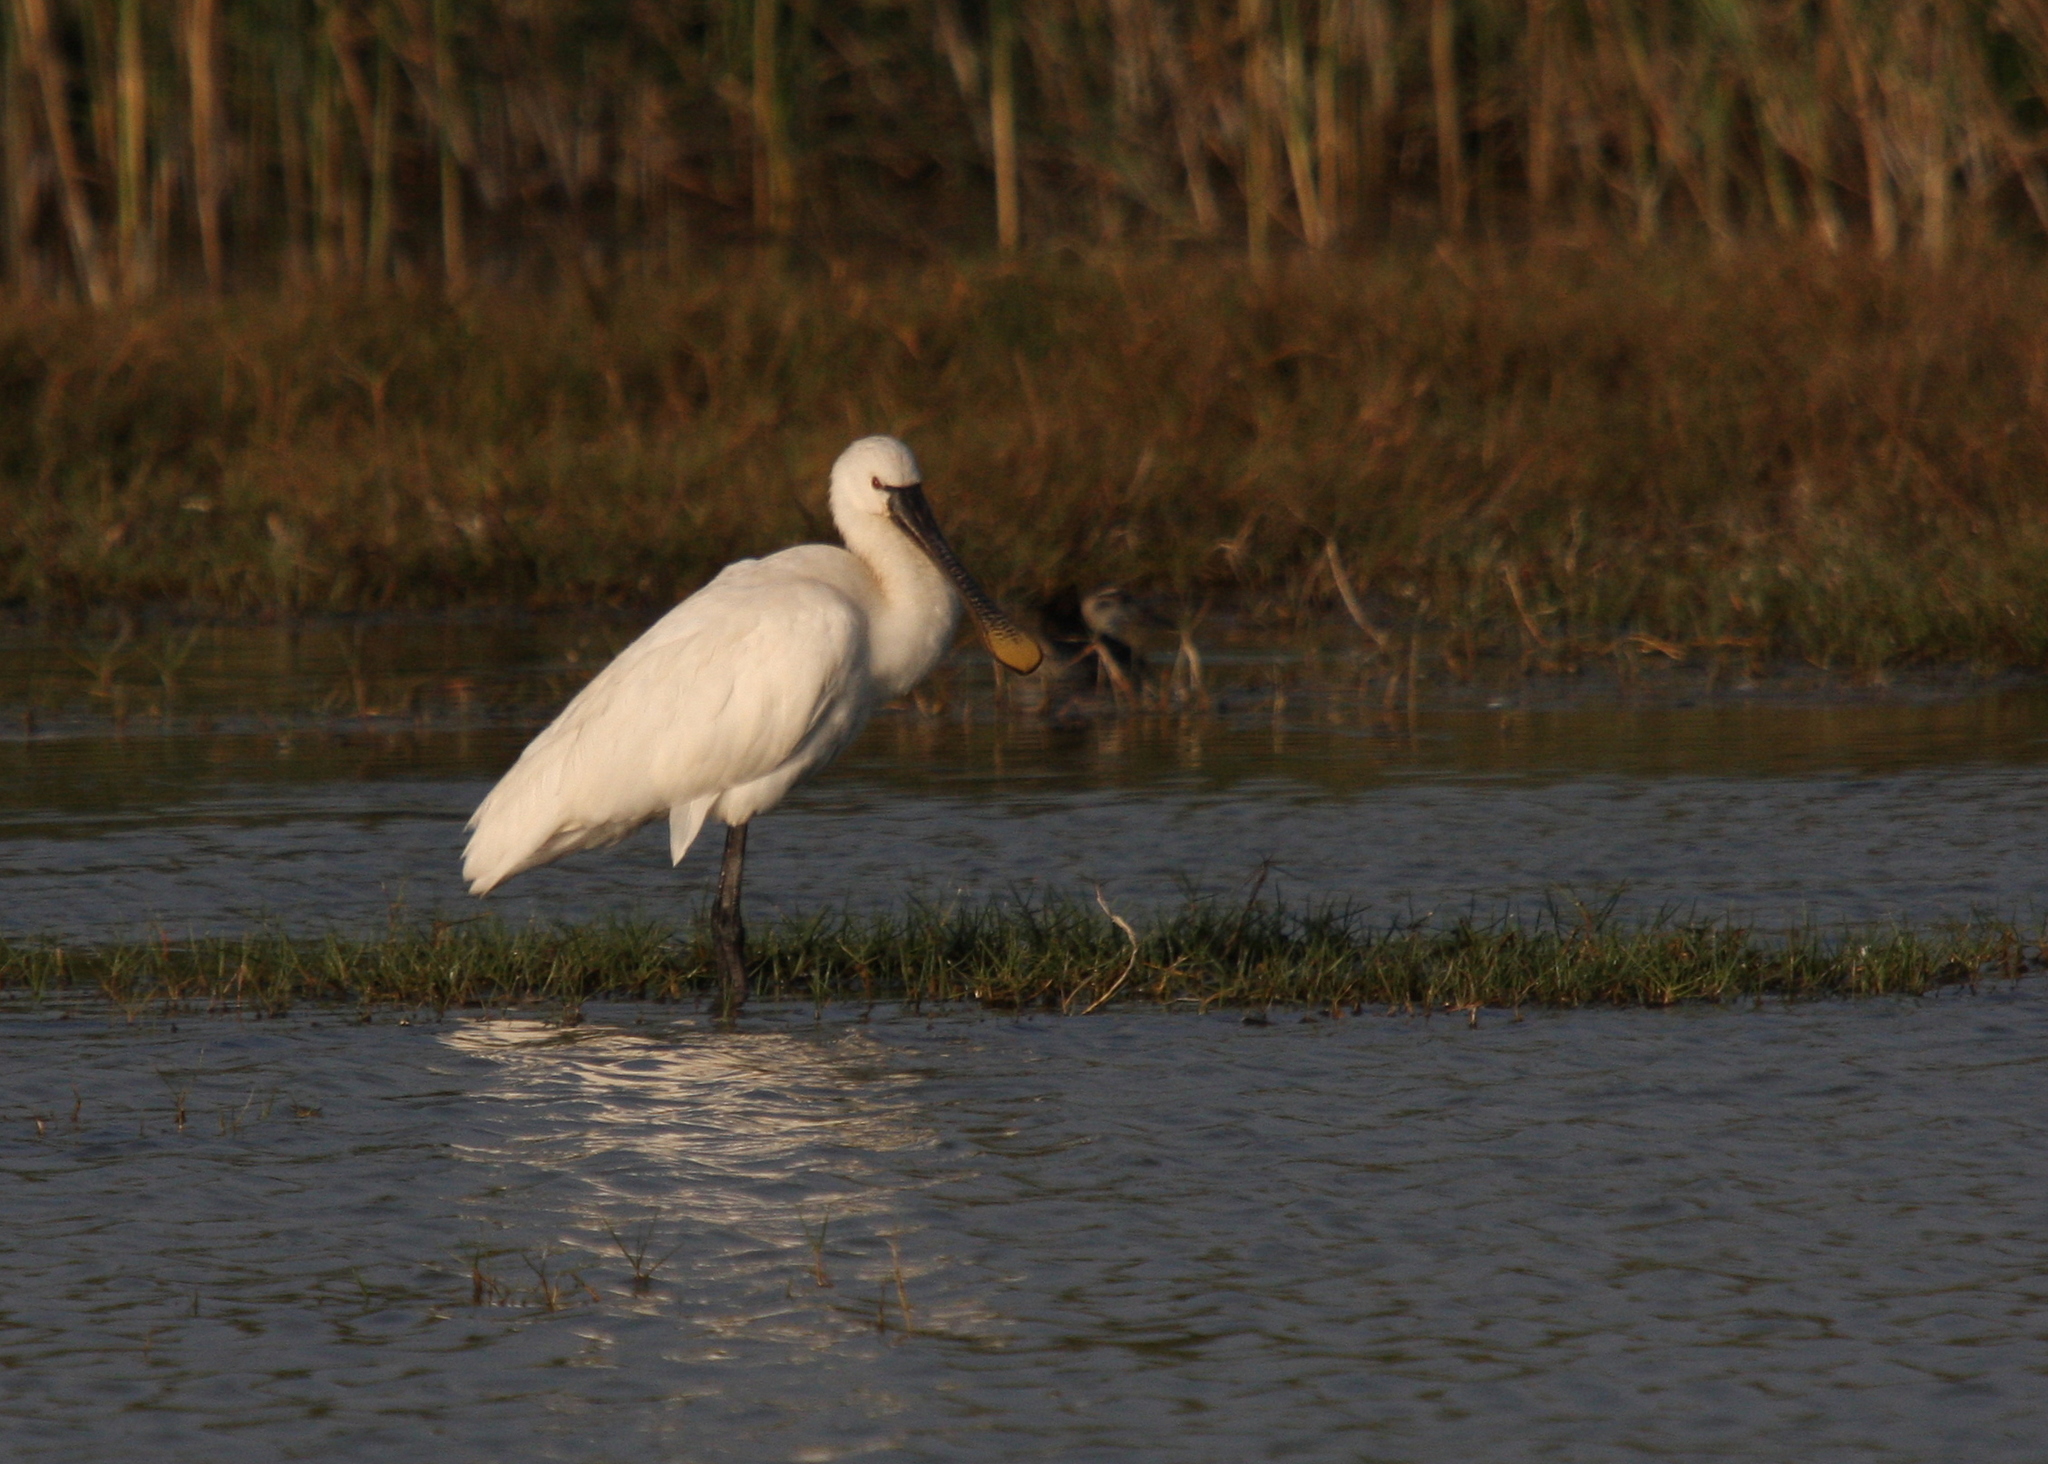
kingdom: Animalia
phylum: Chordata
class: Aves
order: Pelecaniformes
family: Threskiornithidae
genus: Platalea
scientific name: Platalea leucorodia
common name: Eurasian spoonbill
